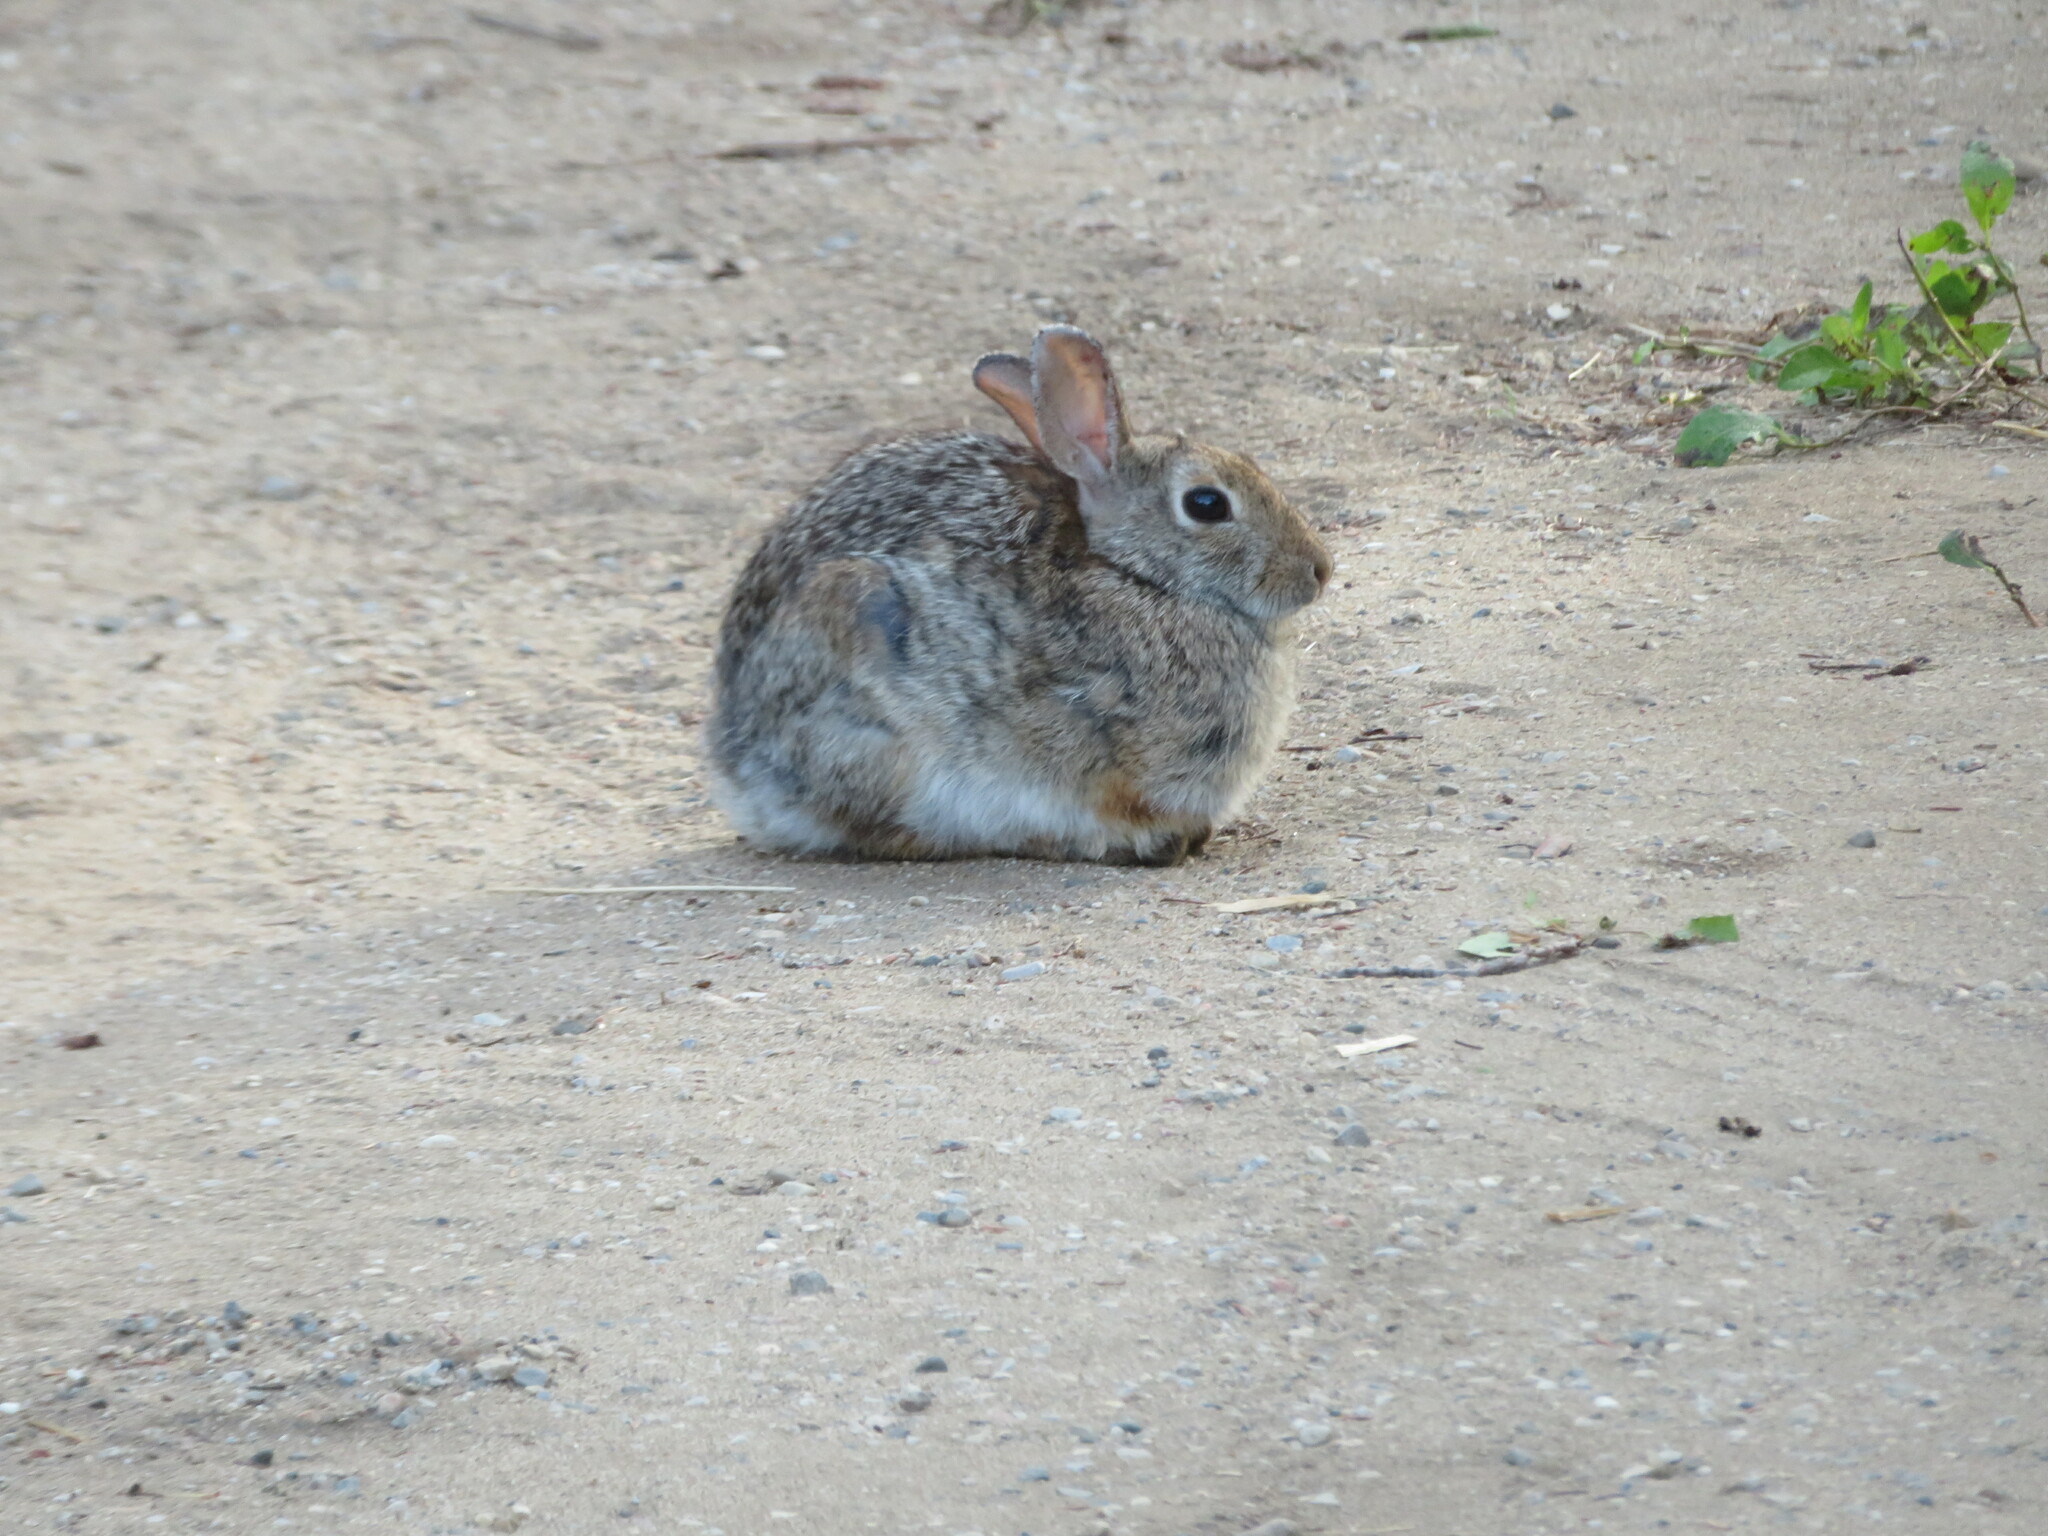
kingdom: Animalia
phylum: Chordata
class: Mammalia
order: Lagomorpha
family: Leporidae
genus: Sylvilagus
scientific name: Sylvilagus nuttallii
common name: Mountain cottontail
